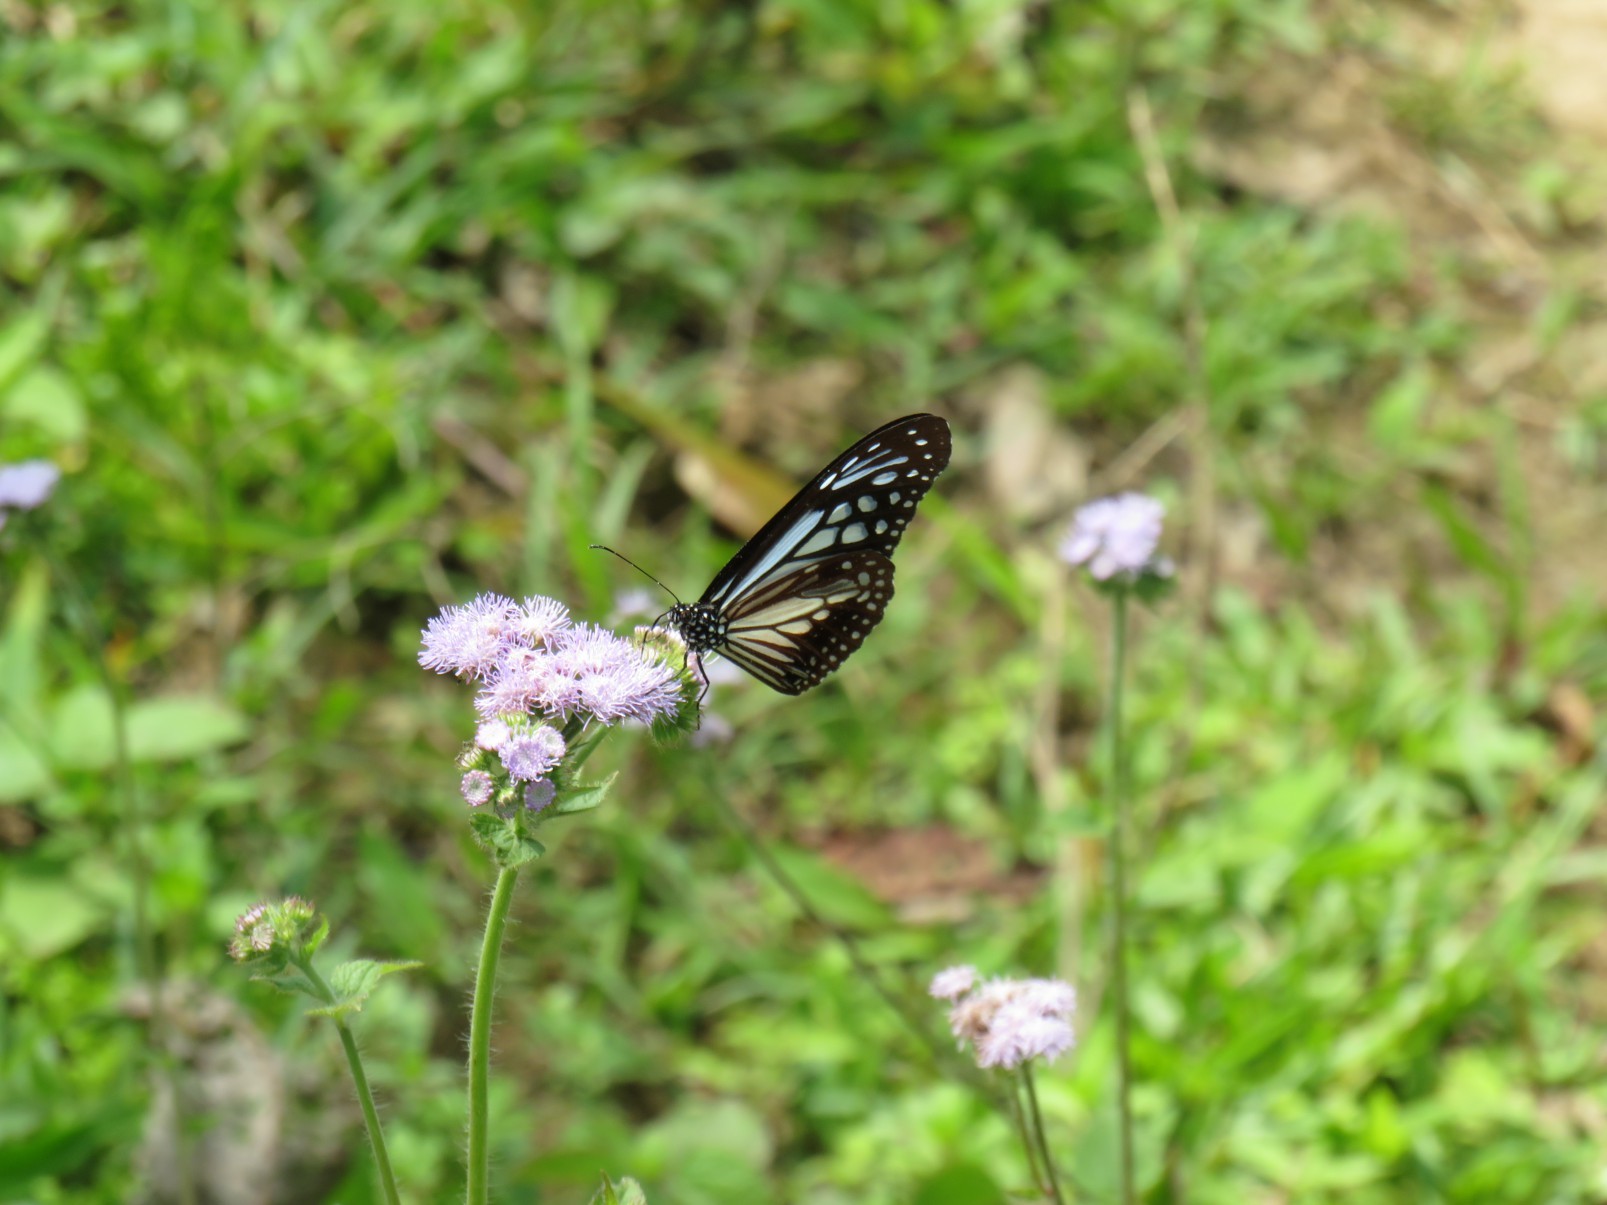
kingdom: Animalia
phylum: Arthropoda
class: Insecta
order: Lepidoptera
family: Nymphalidae
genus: Parantica
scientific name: Parantica melaneus
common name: Chocolate tiger
